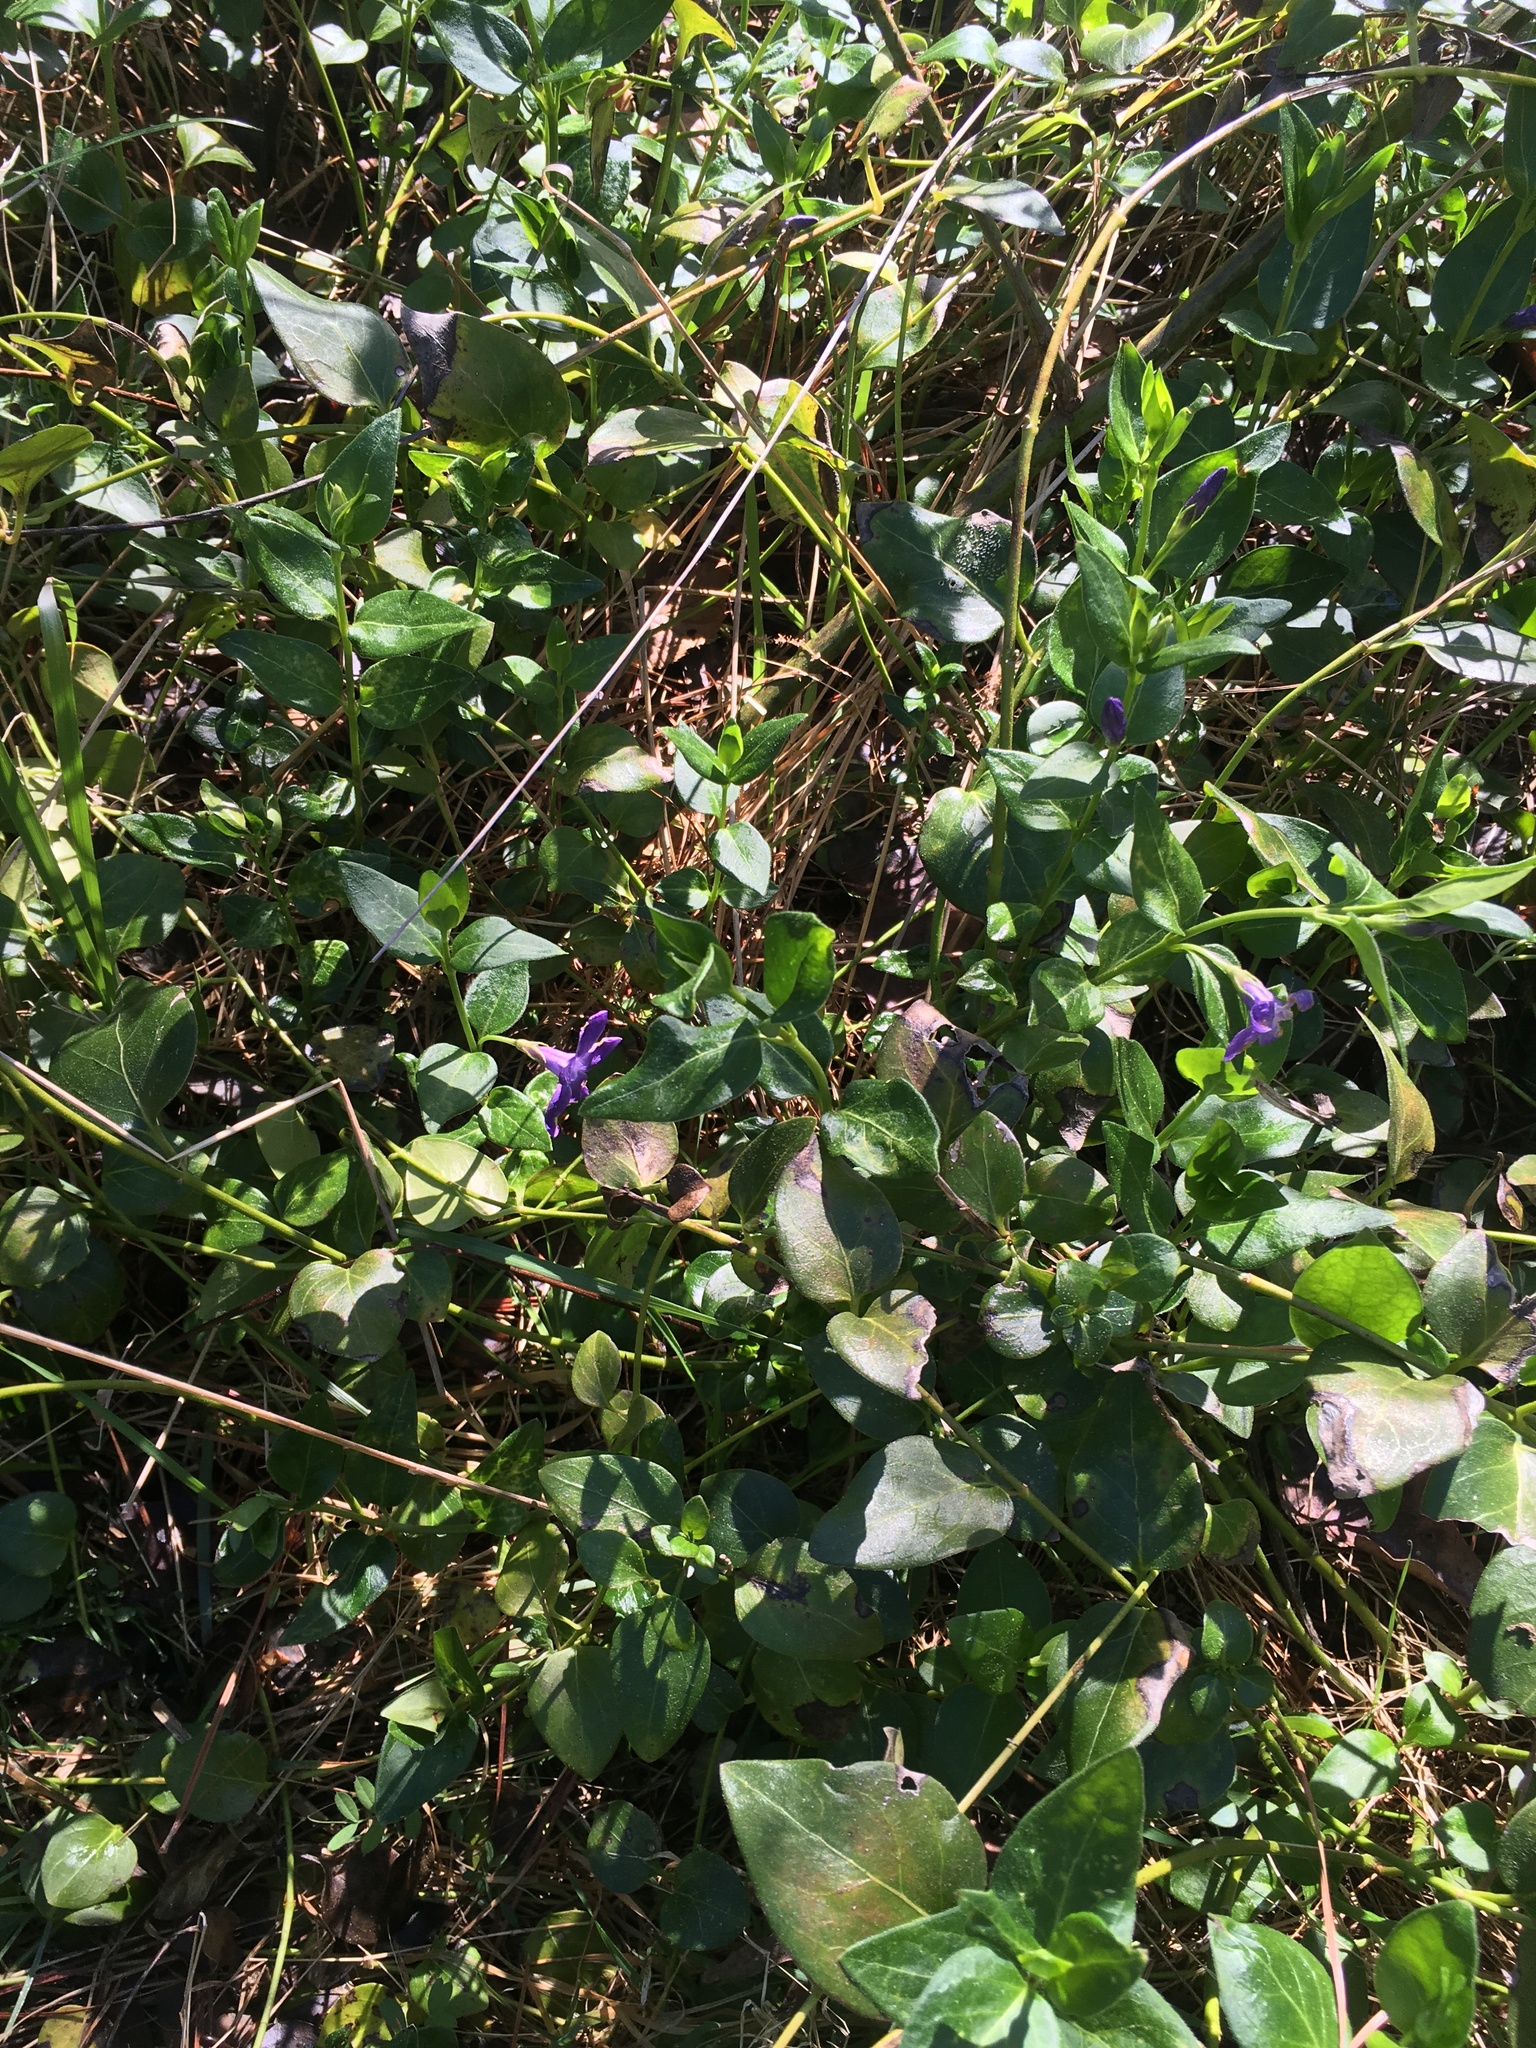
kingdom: Plantae
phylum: Tracheophyta
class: Magnoliopsida
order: Gentianales
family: Apocynaceae
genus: Vinca
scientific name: Vinca major
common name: Greater periwinkle
